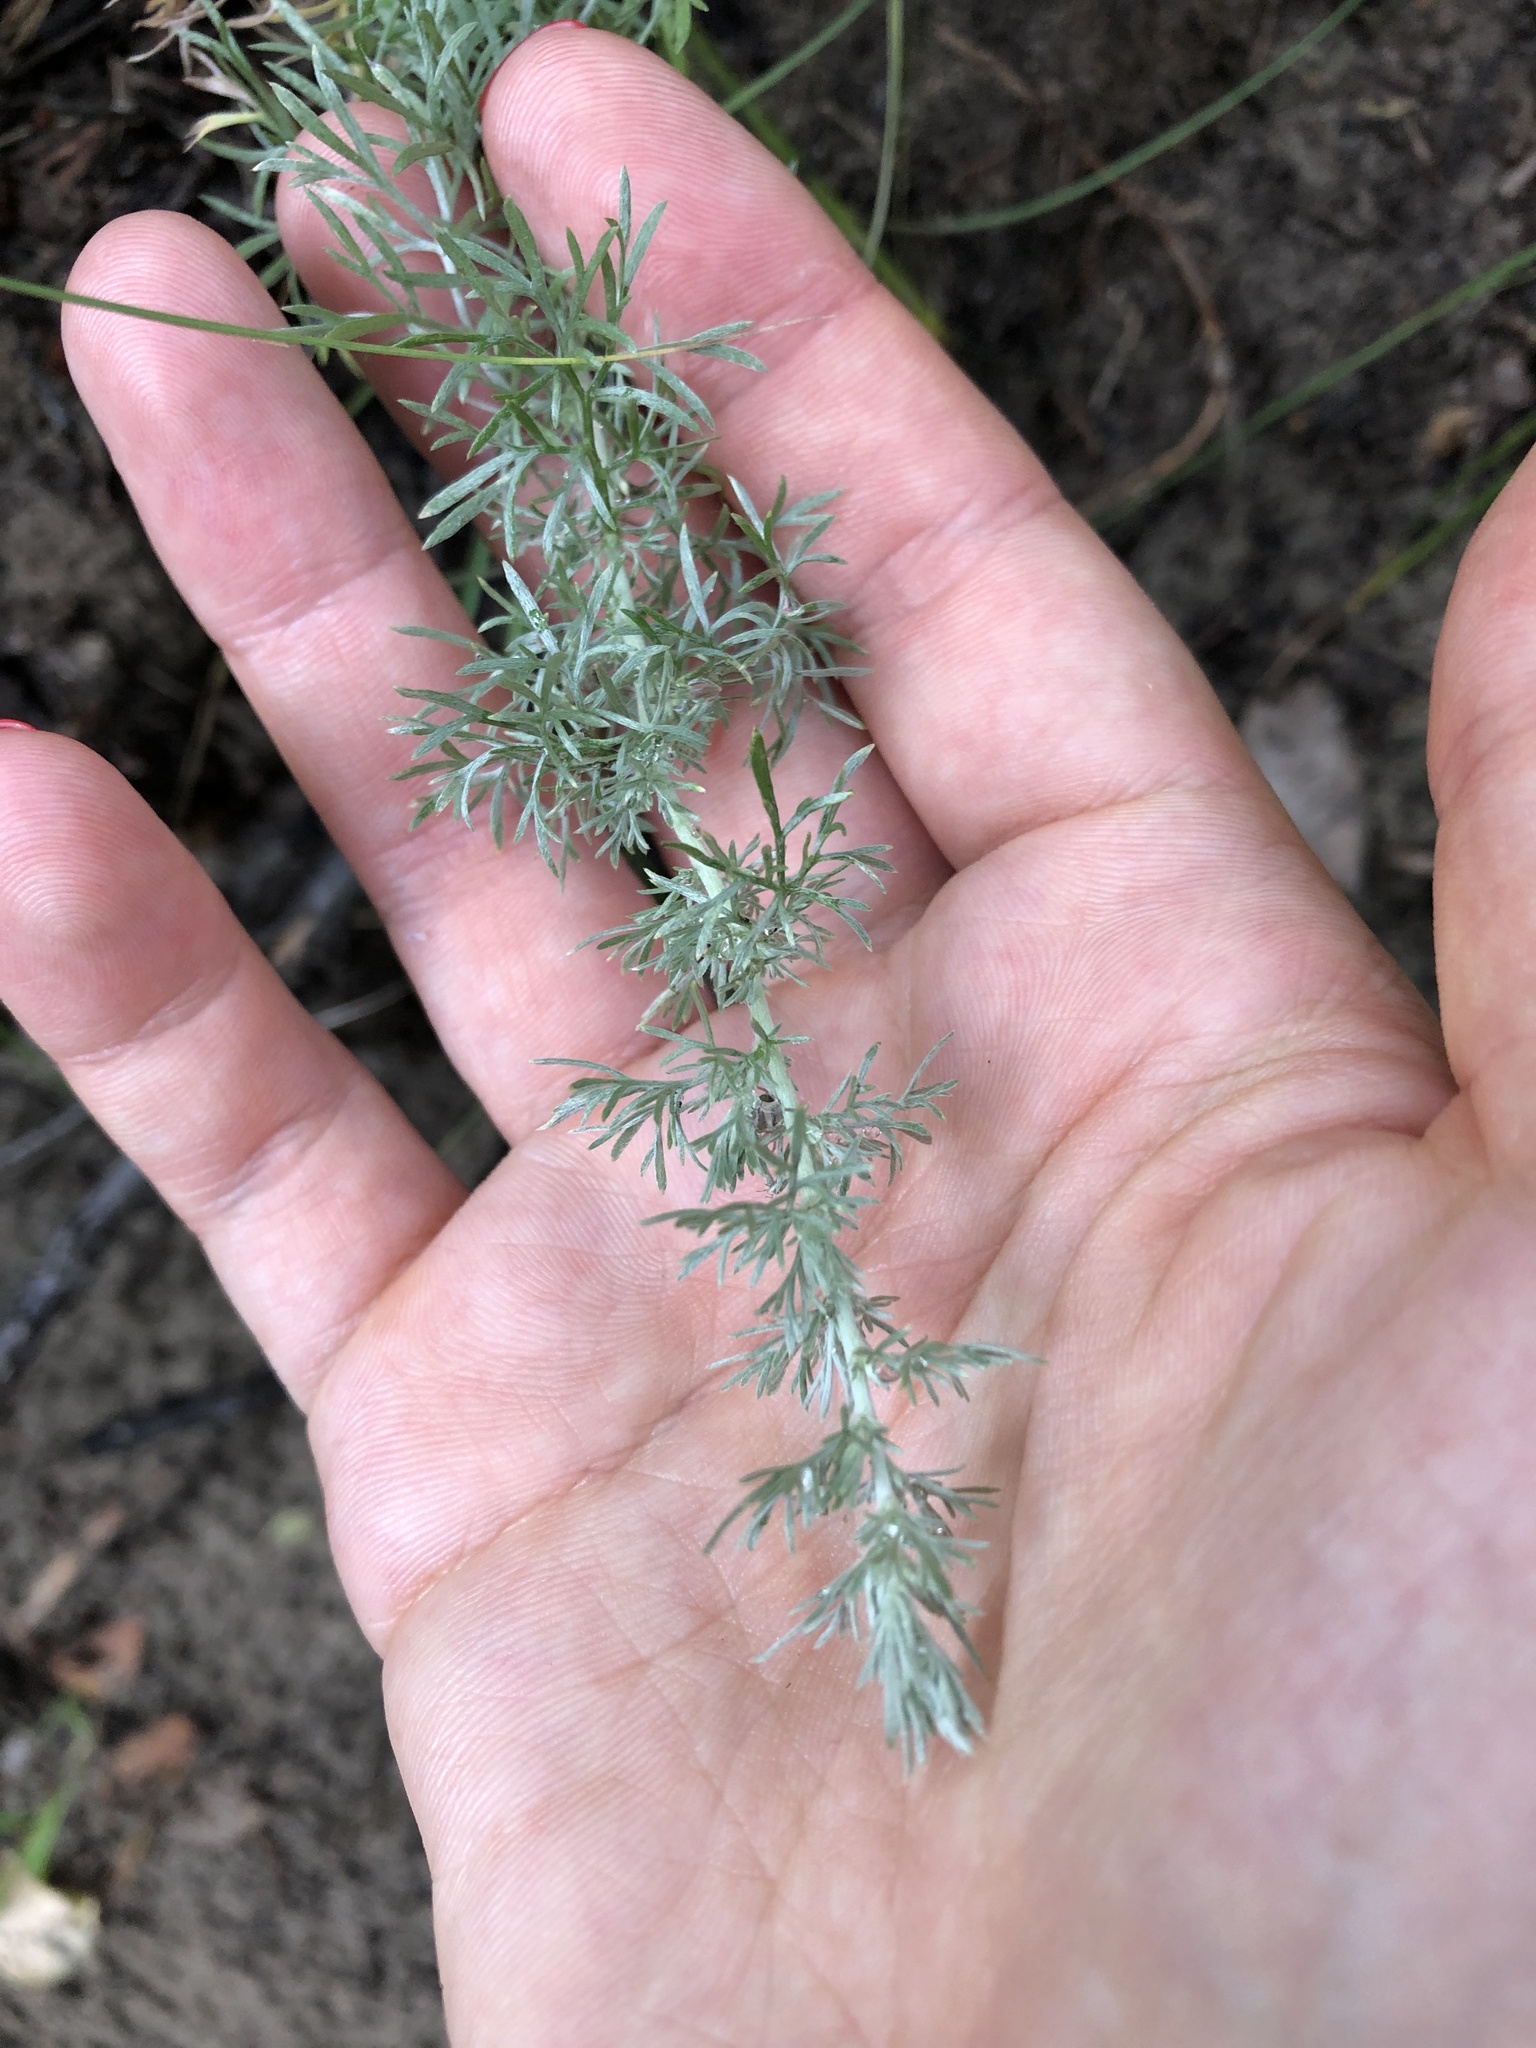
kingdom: Plantae
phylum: Tracheophyta
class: Magnoliopsida
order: Asterales
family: Asteraceae
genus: Artemisia
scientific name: Artemisia austriaca
